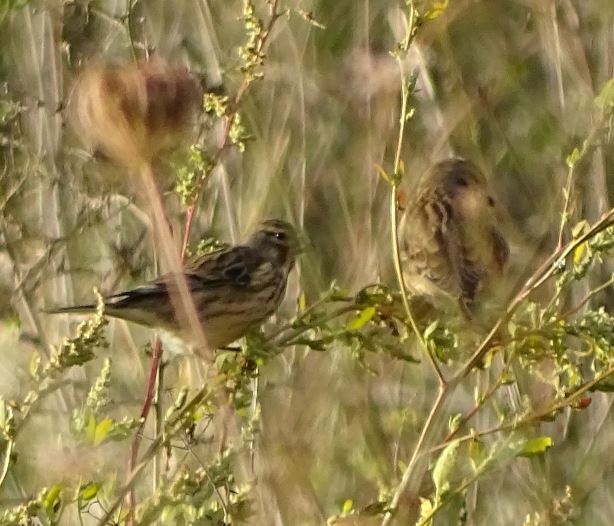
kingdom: Animalia
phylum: Chordata
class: Aves
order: Passeriformes
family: Fringillidae
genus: Serinus
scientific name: Serinus serinus
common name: European serin
